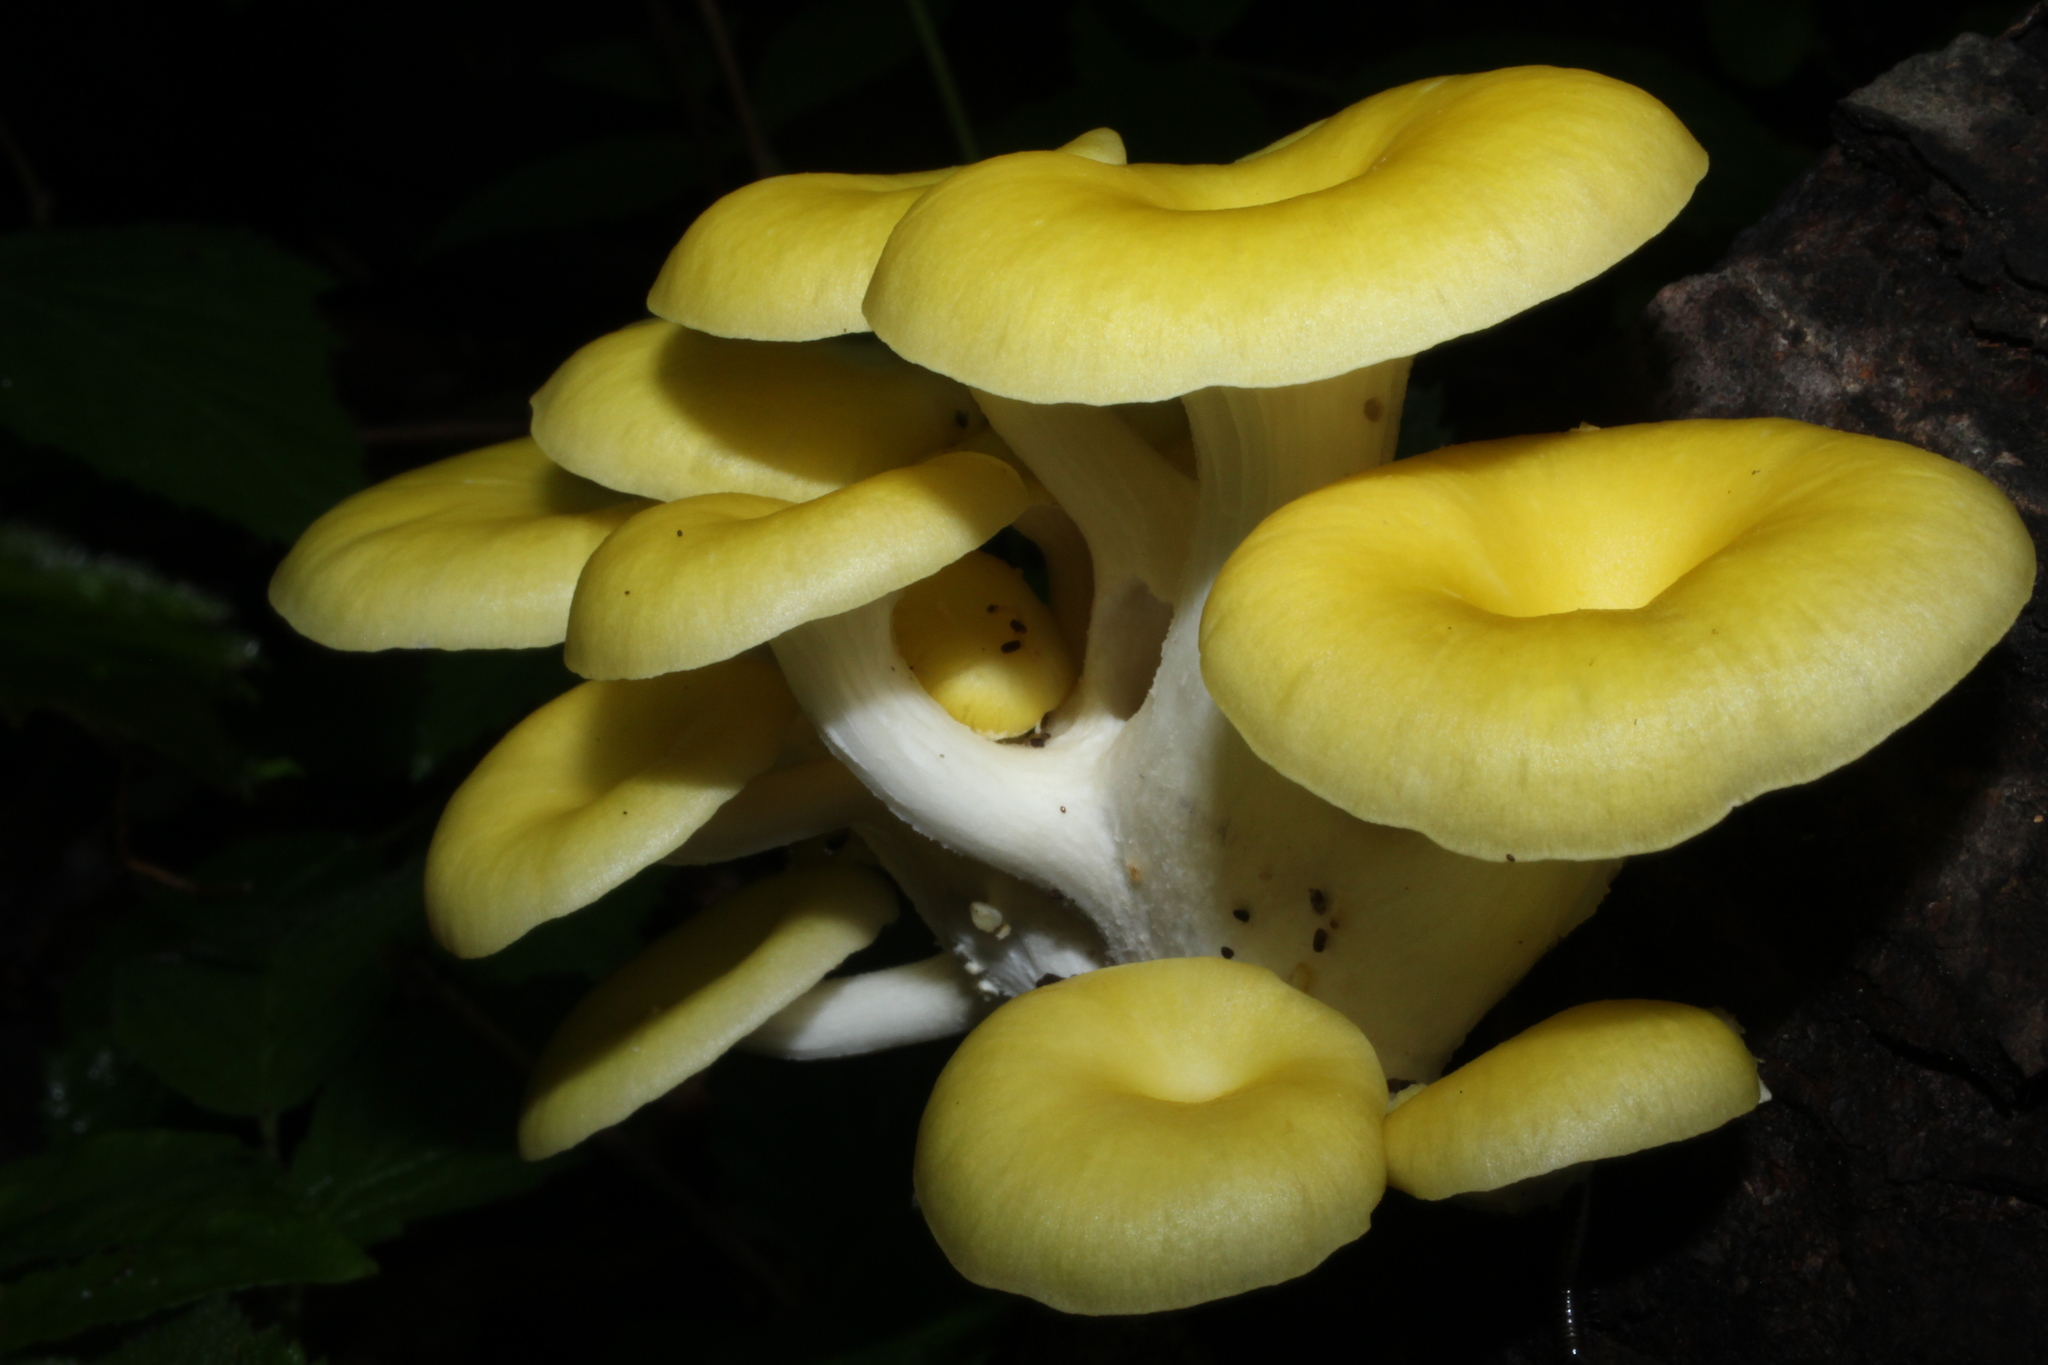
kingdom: Fungi
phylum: Basidiomycota
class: Agaricomycetes
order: Agaricales
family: Pleurotaceae
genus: Pleurotus
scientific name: Pleurotus citrinopileatus
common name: Golden oyster mushroom
